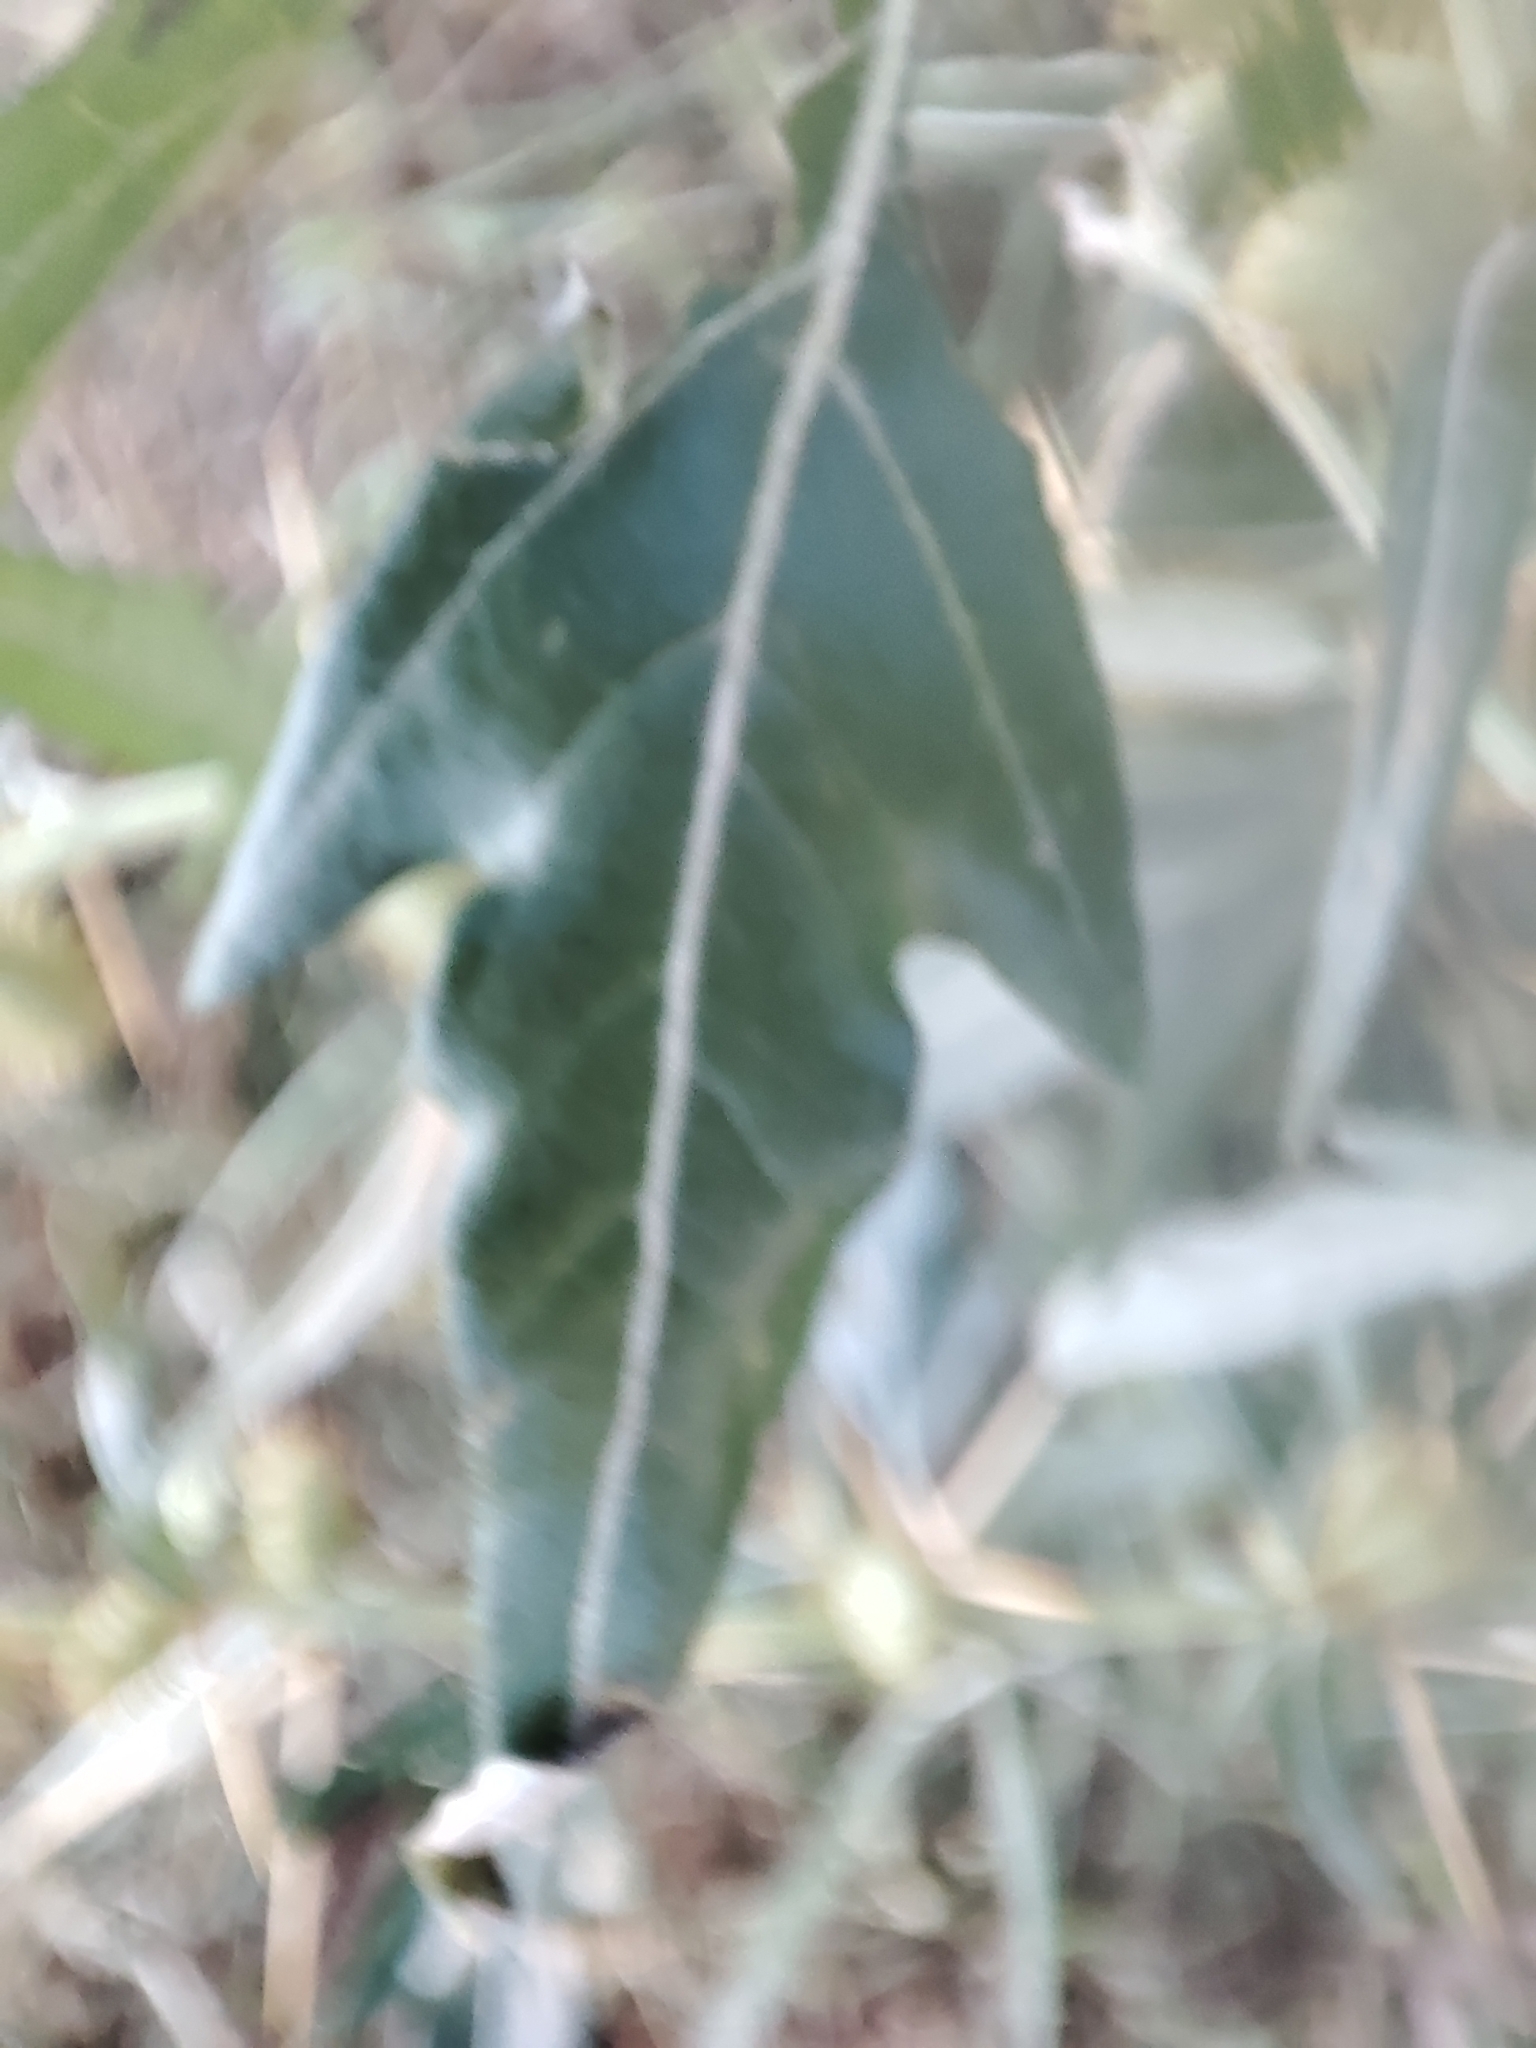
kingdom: Plantae
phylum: Tracheophyta
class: Magnoliopsida
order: Asterales
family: Asteraceae
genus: Xanthium
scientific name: Xanthium spinosum
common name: Spiny cocklebur
